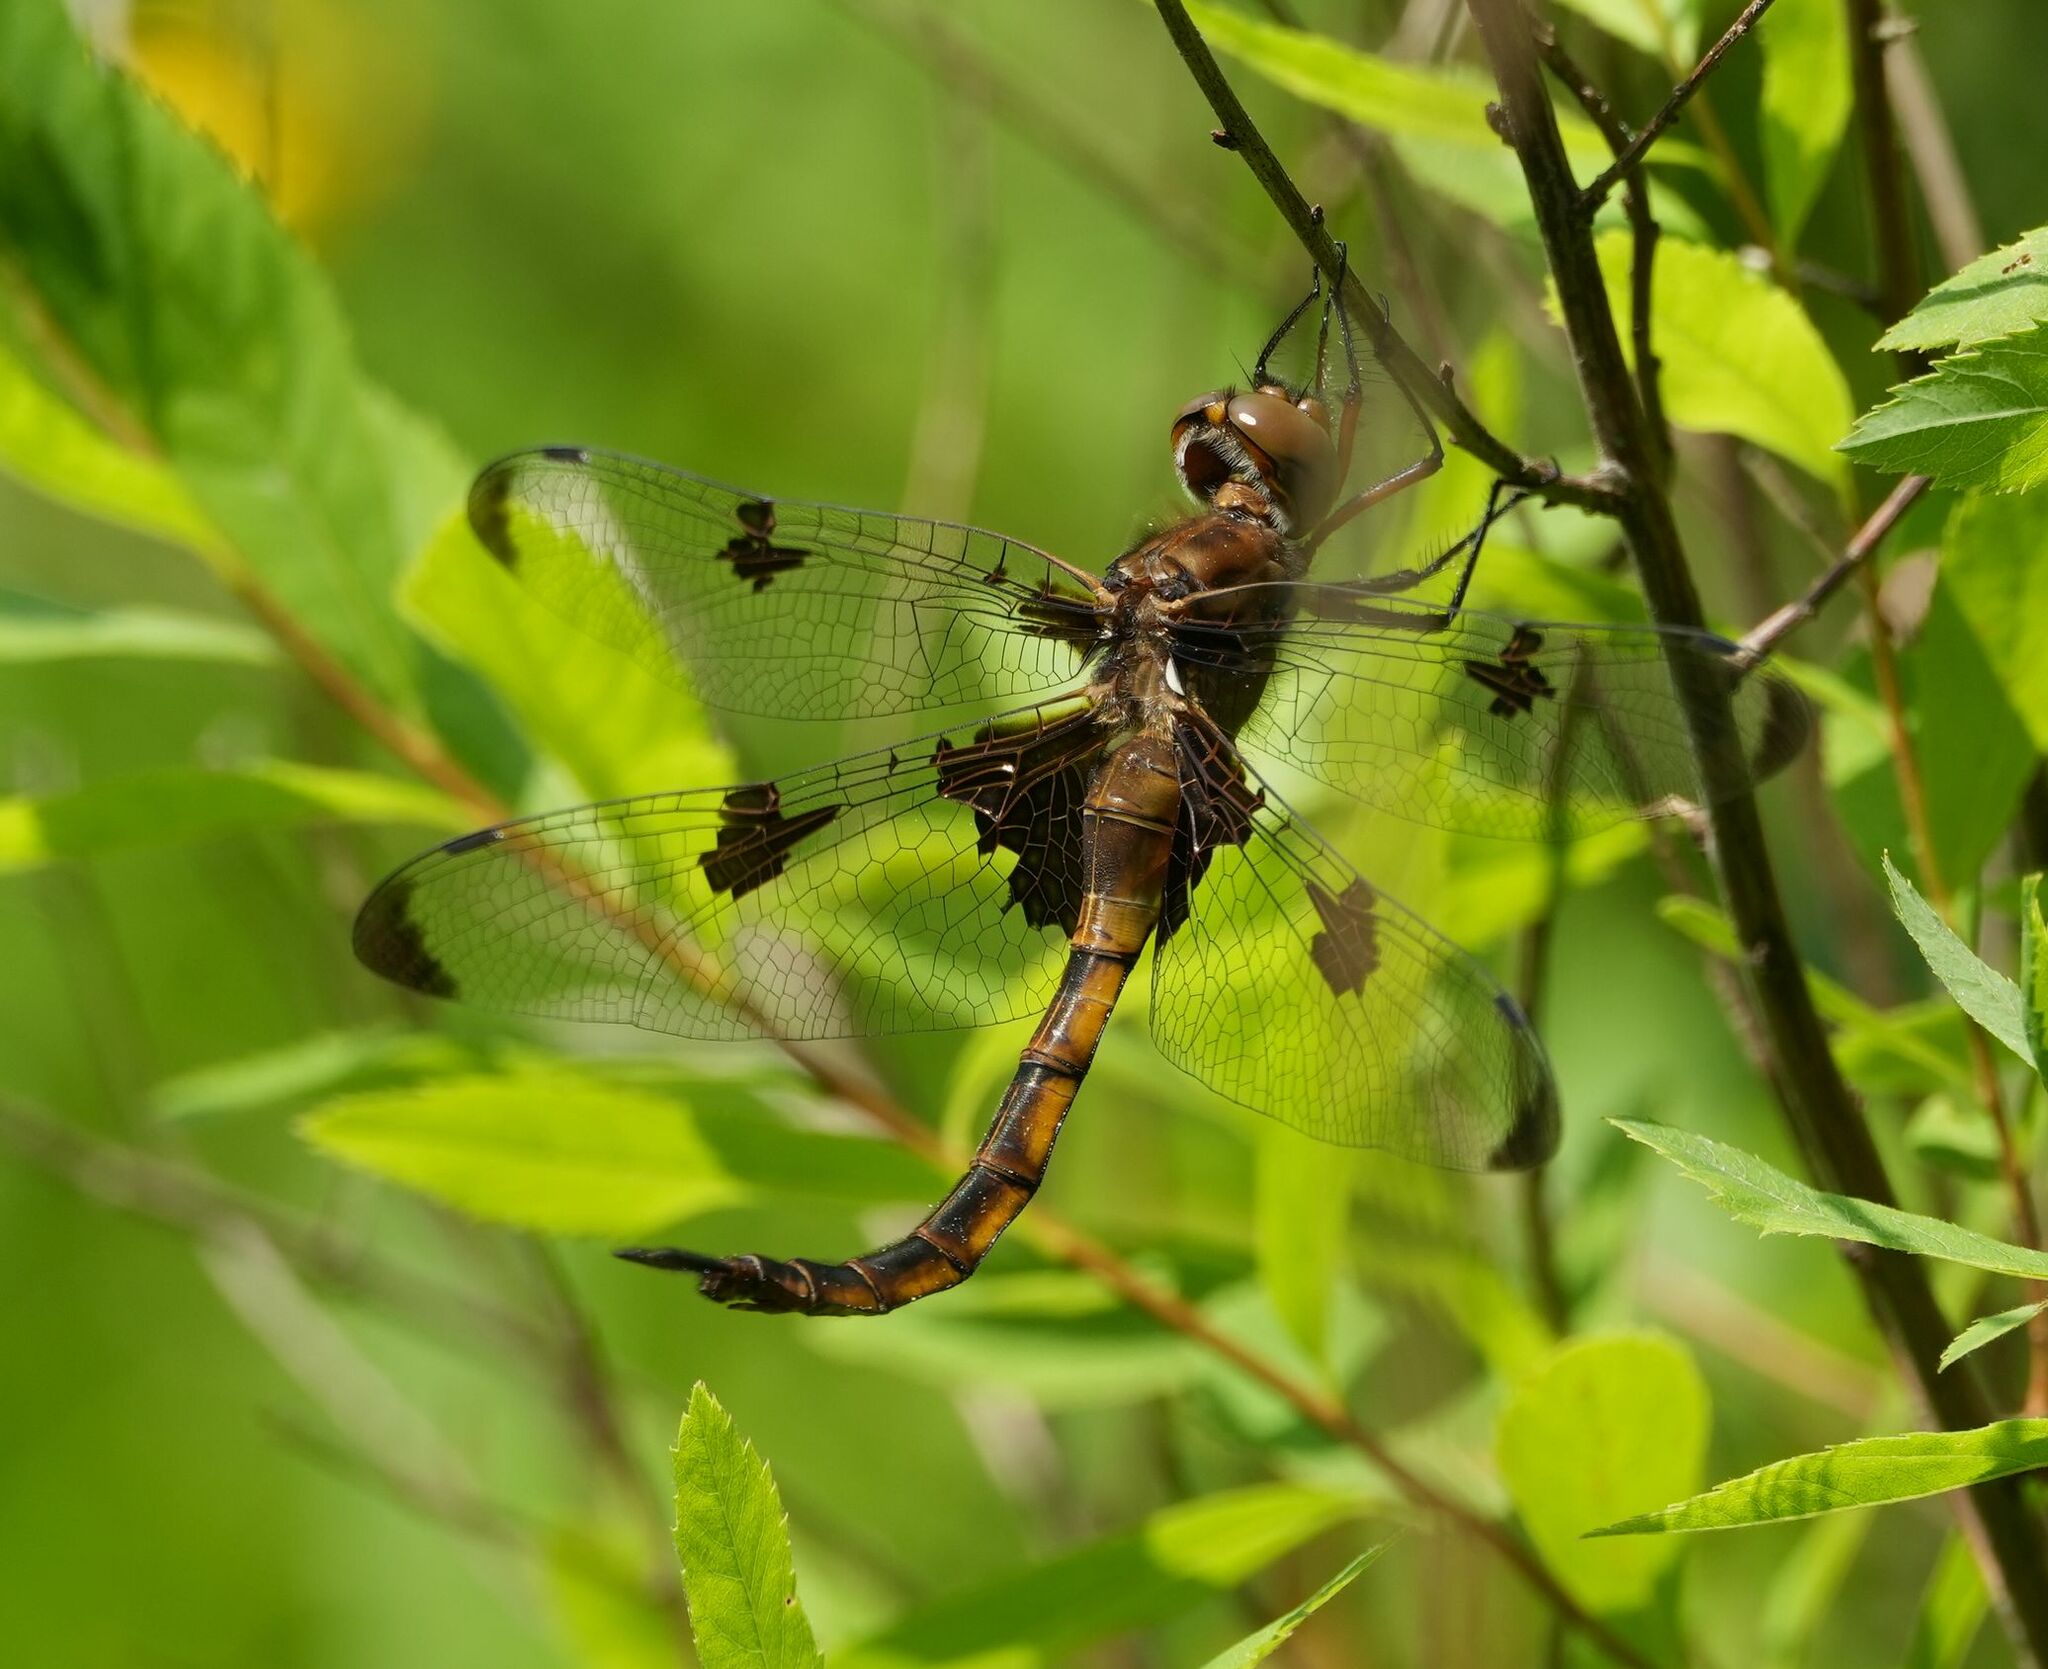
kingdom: Animalia
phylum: Arthropoda
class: Insecta
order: Odonata
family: Corduliidae
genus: Epitheca
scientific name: Epitheca princeps
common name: Prince baskettail
